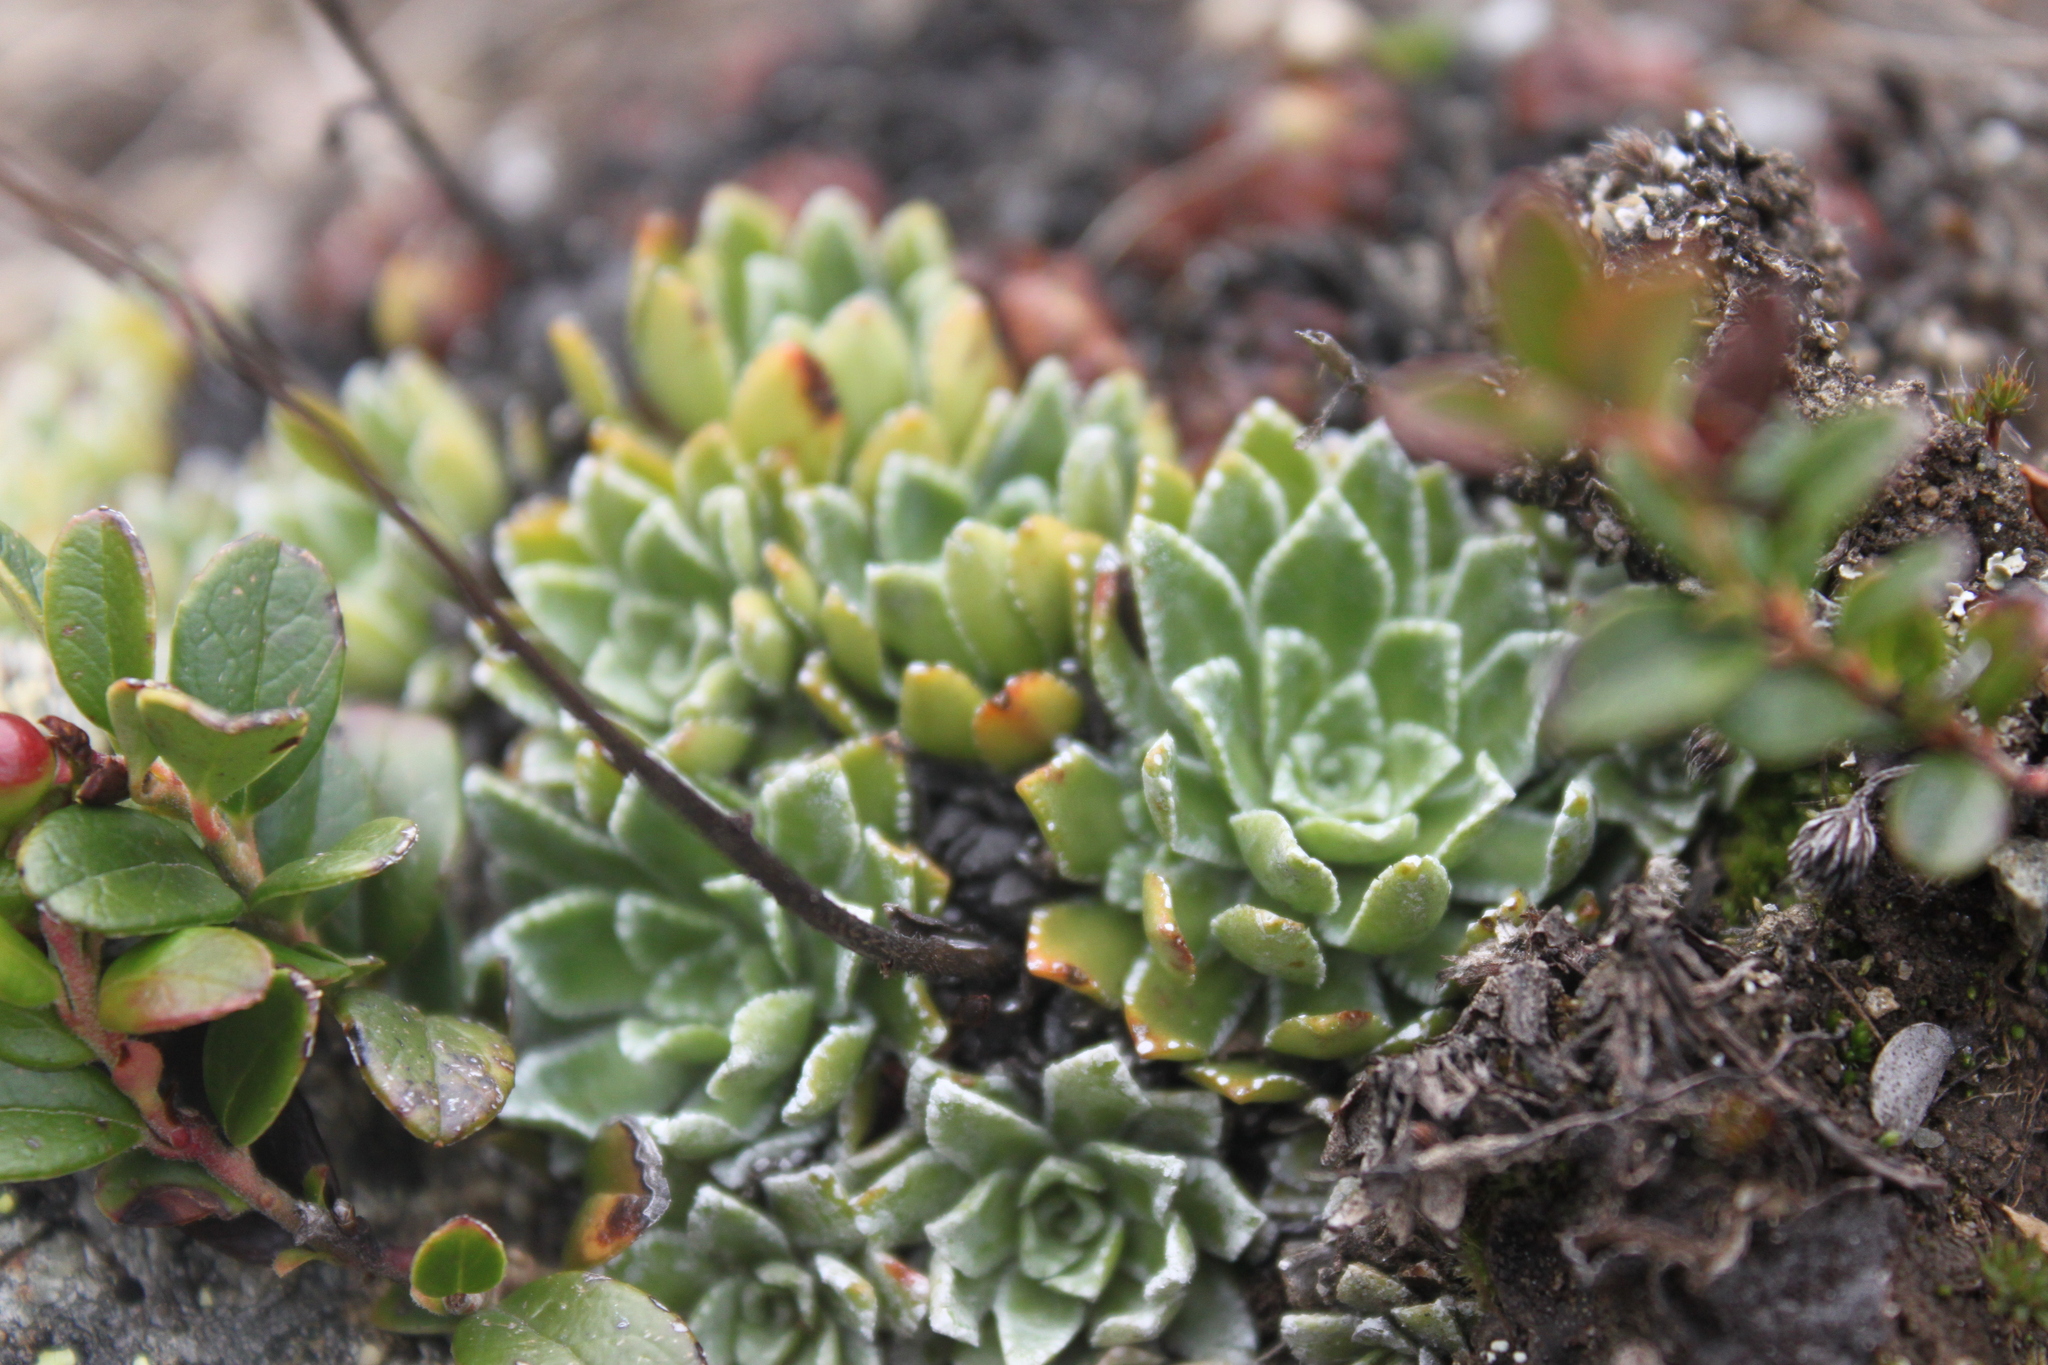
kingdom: Plantae
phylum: Tracheophyta
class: Magnoliopsida
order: Saxifragales
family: Saxifragaceae
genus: Saxifraga
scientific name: Saxifraga paniculata
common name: Livelong saxifrage
